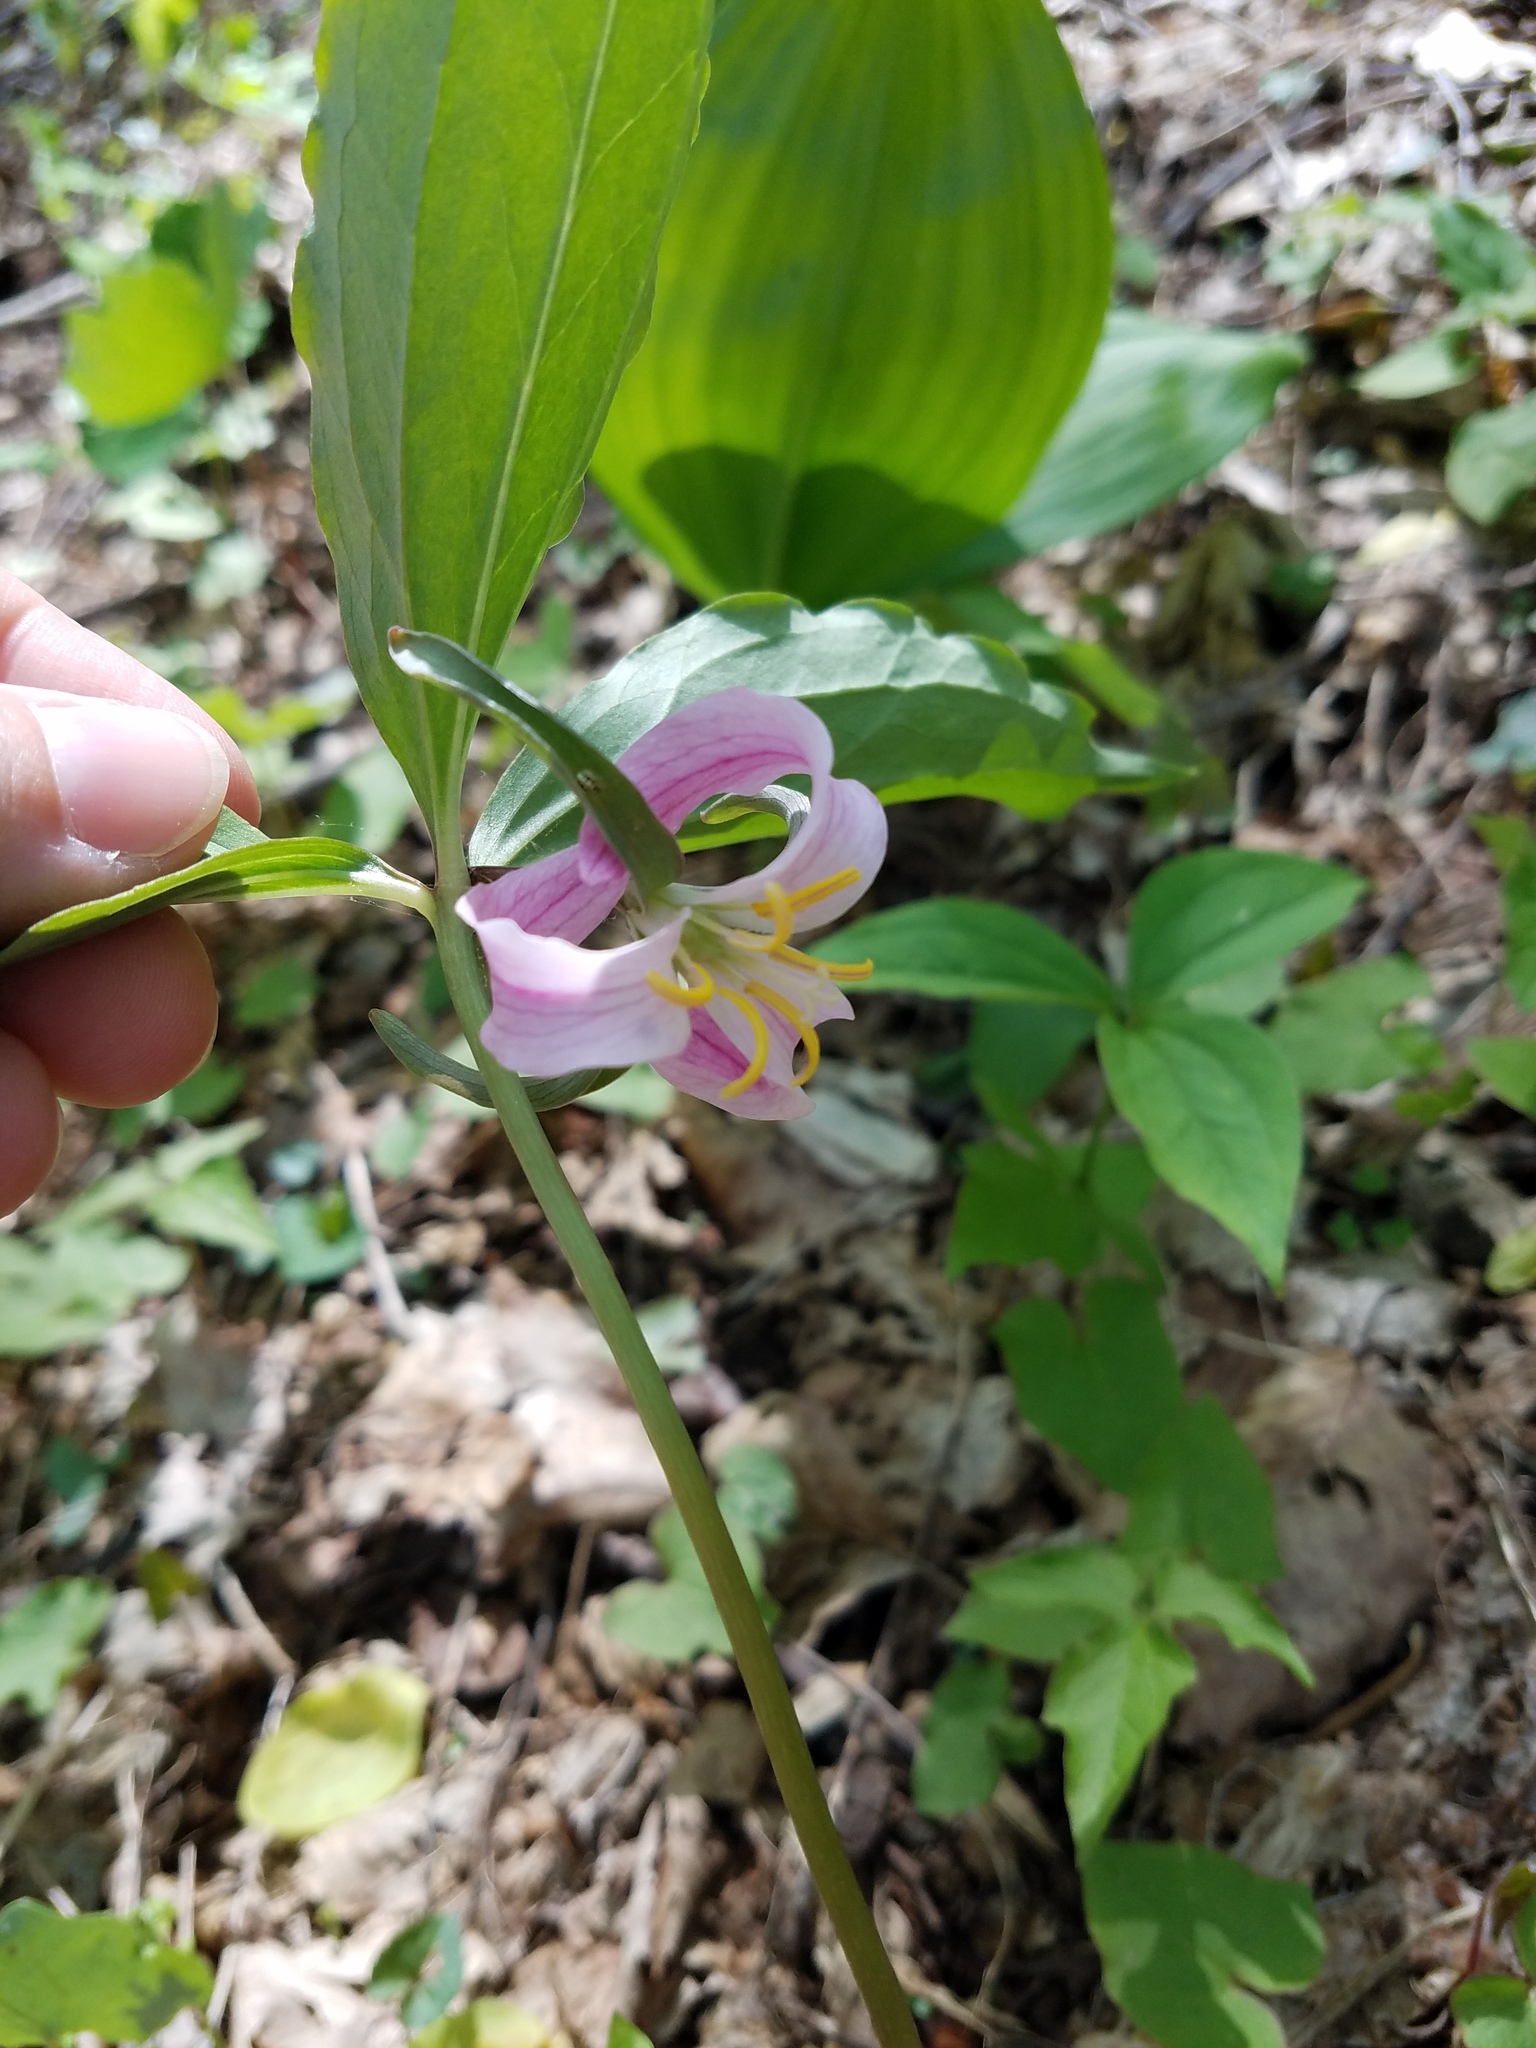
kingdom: Plantae
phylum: Tracheophyta
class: Liliopsida
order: Liliales
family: Melanthiaceae
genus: Trillium
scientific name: Trillium catesbaei
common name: Bashful trillium
